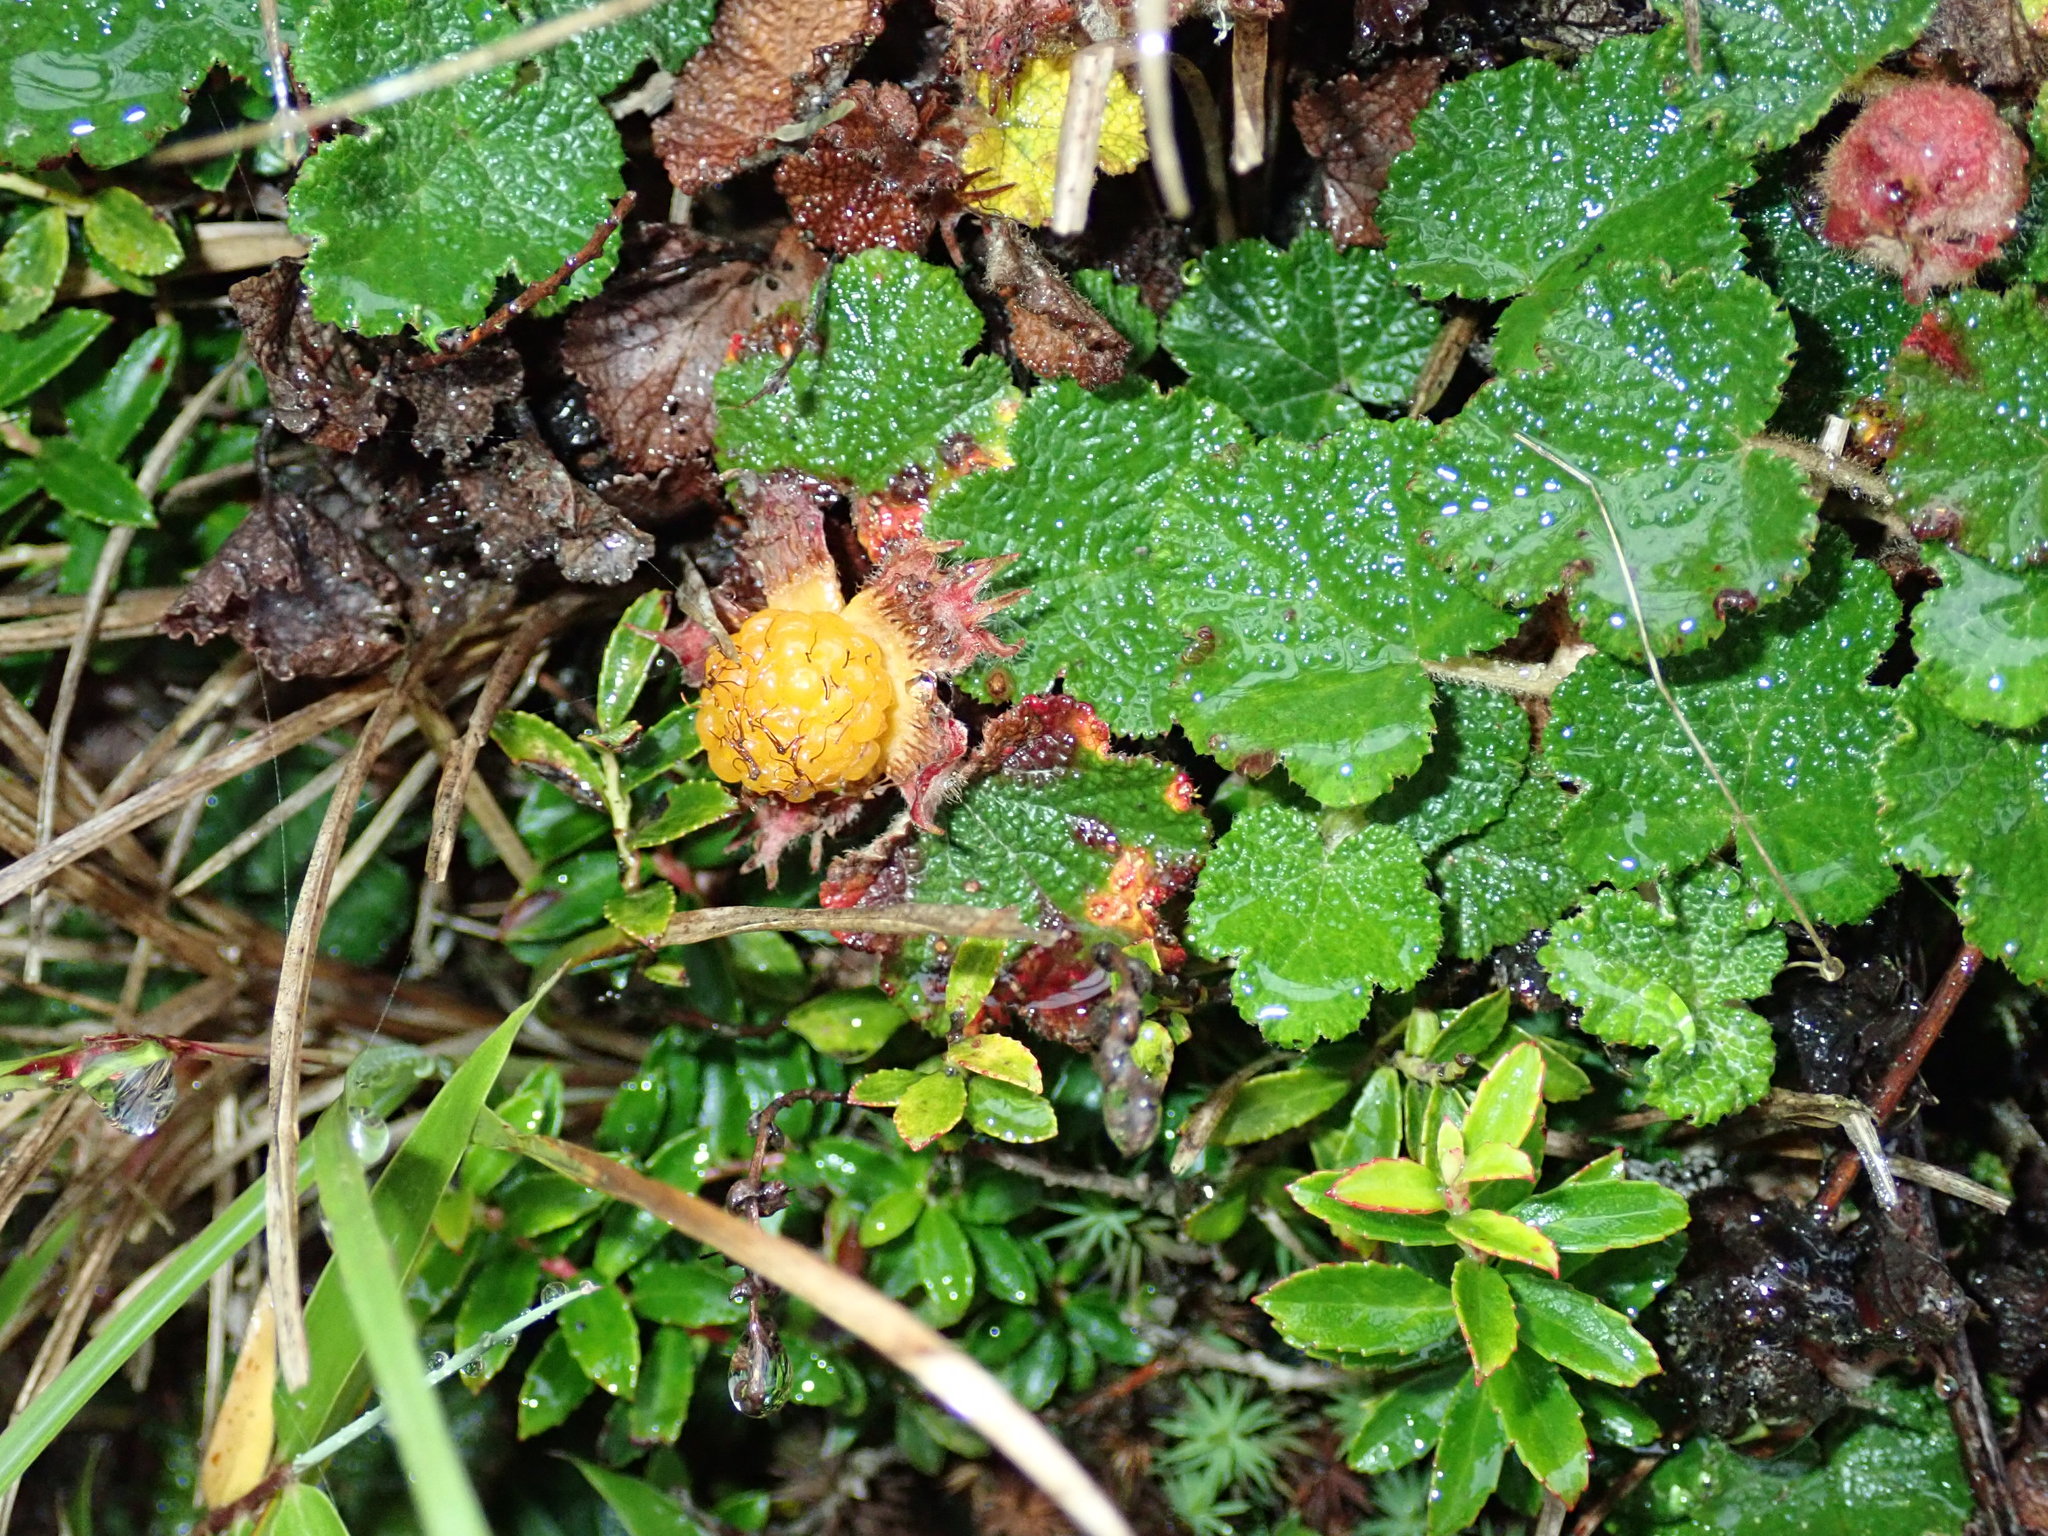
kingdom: Plantae
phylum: Tracheophyta
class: Magnoliopsida
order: Rosales
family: Rosaceae
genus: Rubus
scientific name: Rubus rolfei
